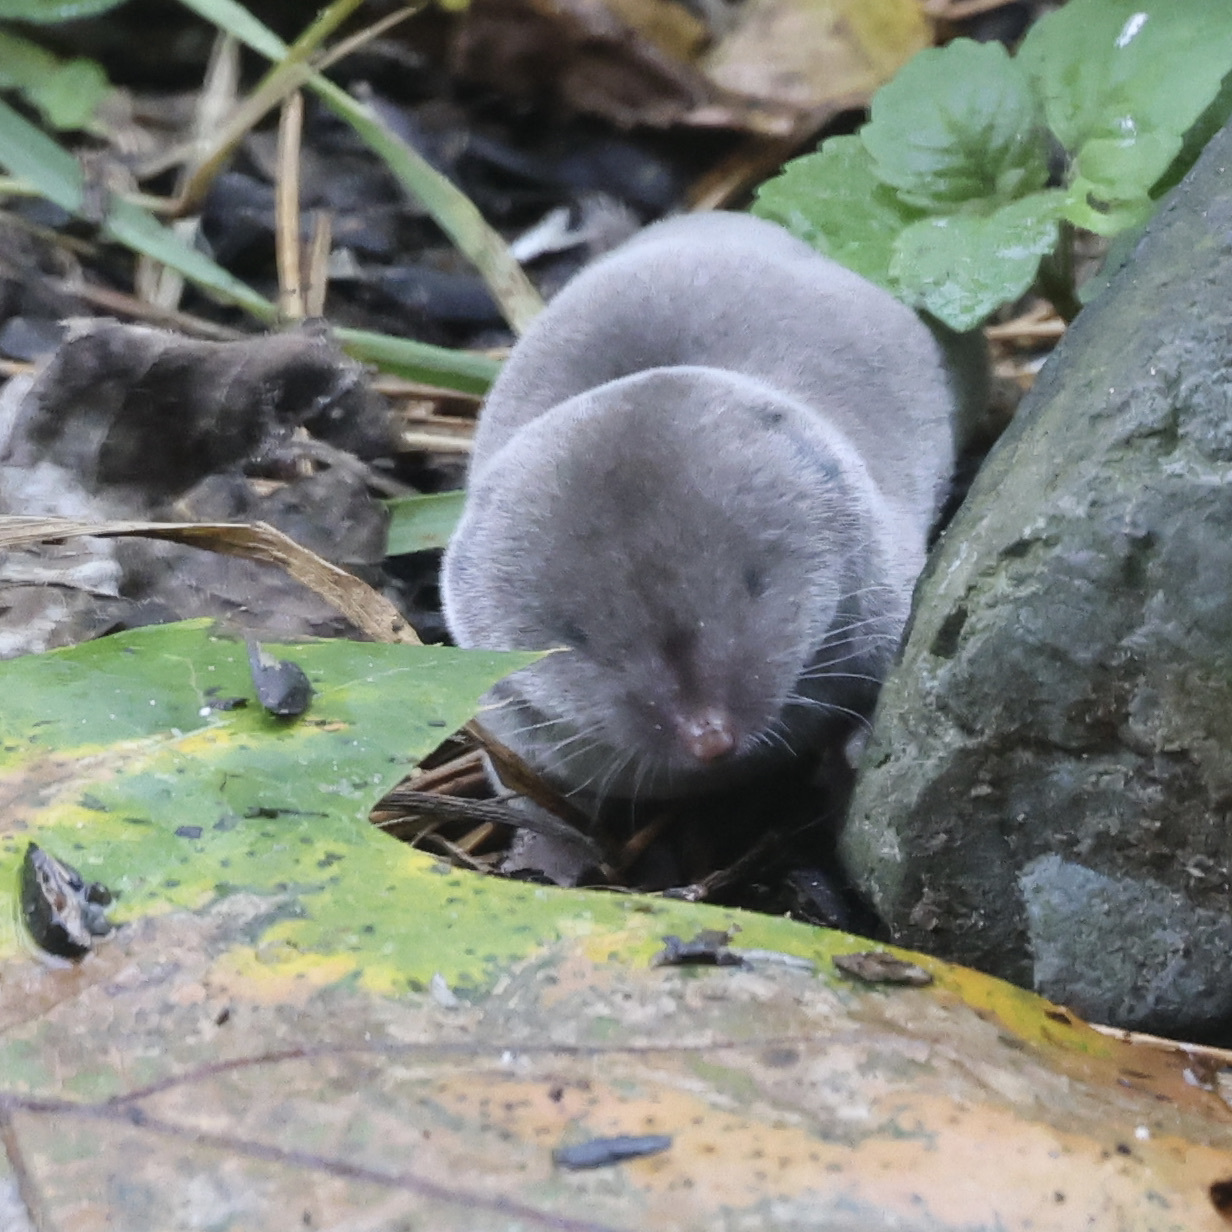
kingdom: Animalia
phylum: Chordata
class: Mammalia
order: Soricomorpha
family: Soricidae
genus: Blarina
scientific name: Blarina brevicauda
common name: Northern short-tailed shrew
